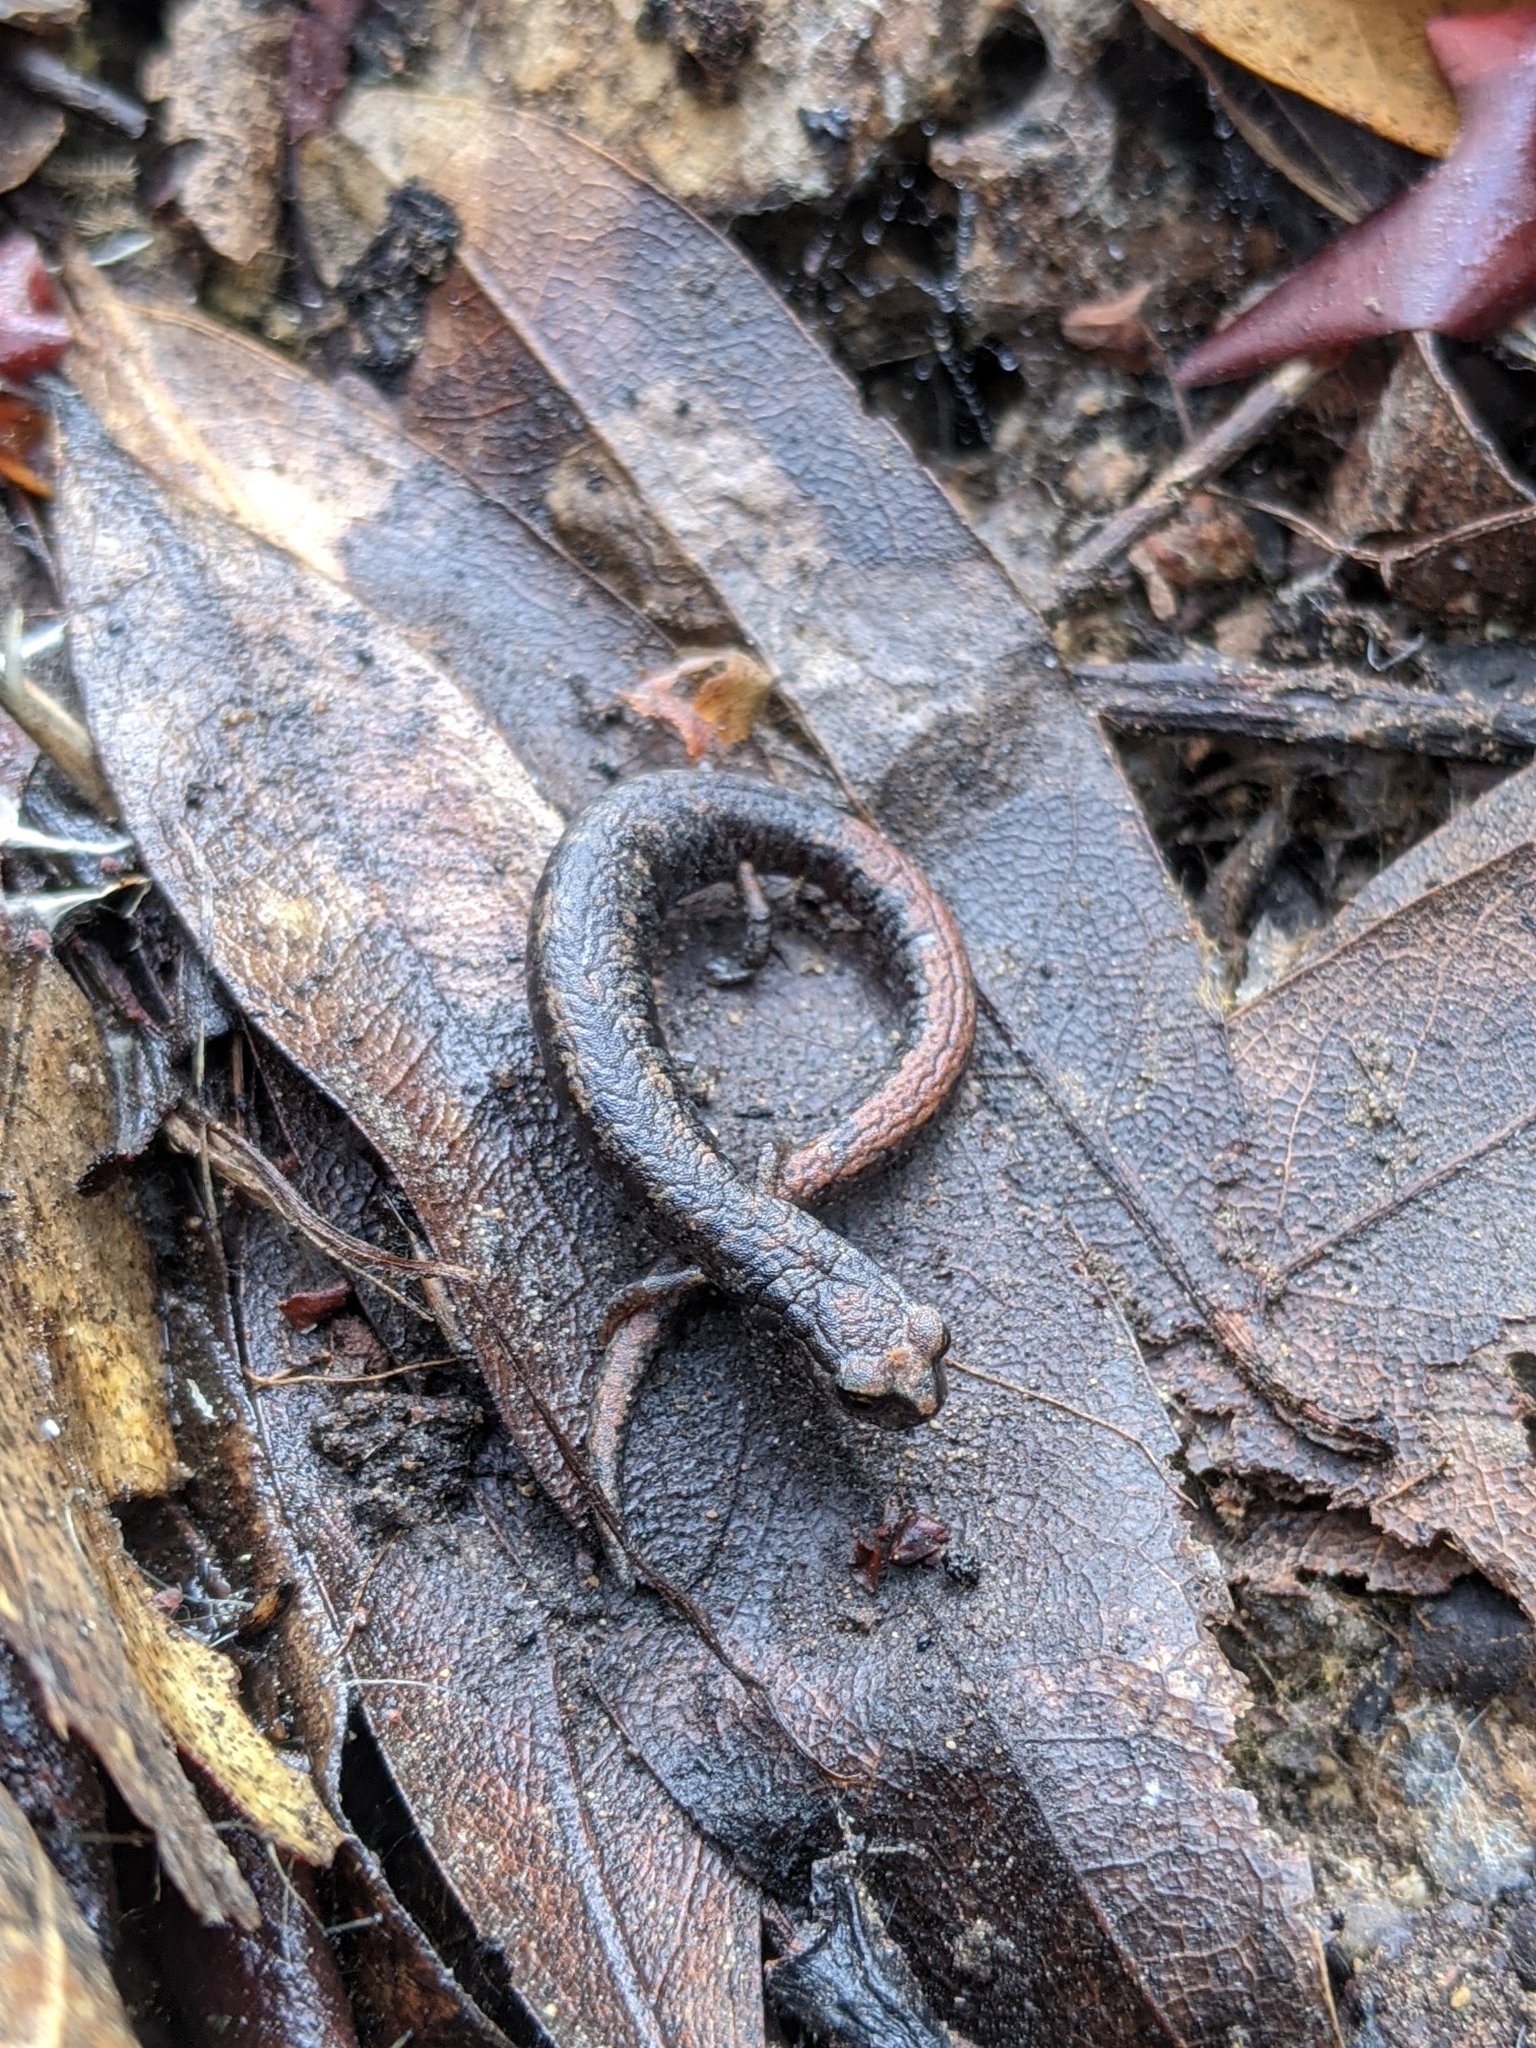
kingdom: Animalia
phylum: Chordata
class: Amphibia
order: Caudata
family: Plethodontidae
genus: Batrachoseps
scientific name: Batrachoseps attenuatus
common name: California slender salamander
